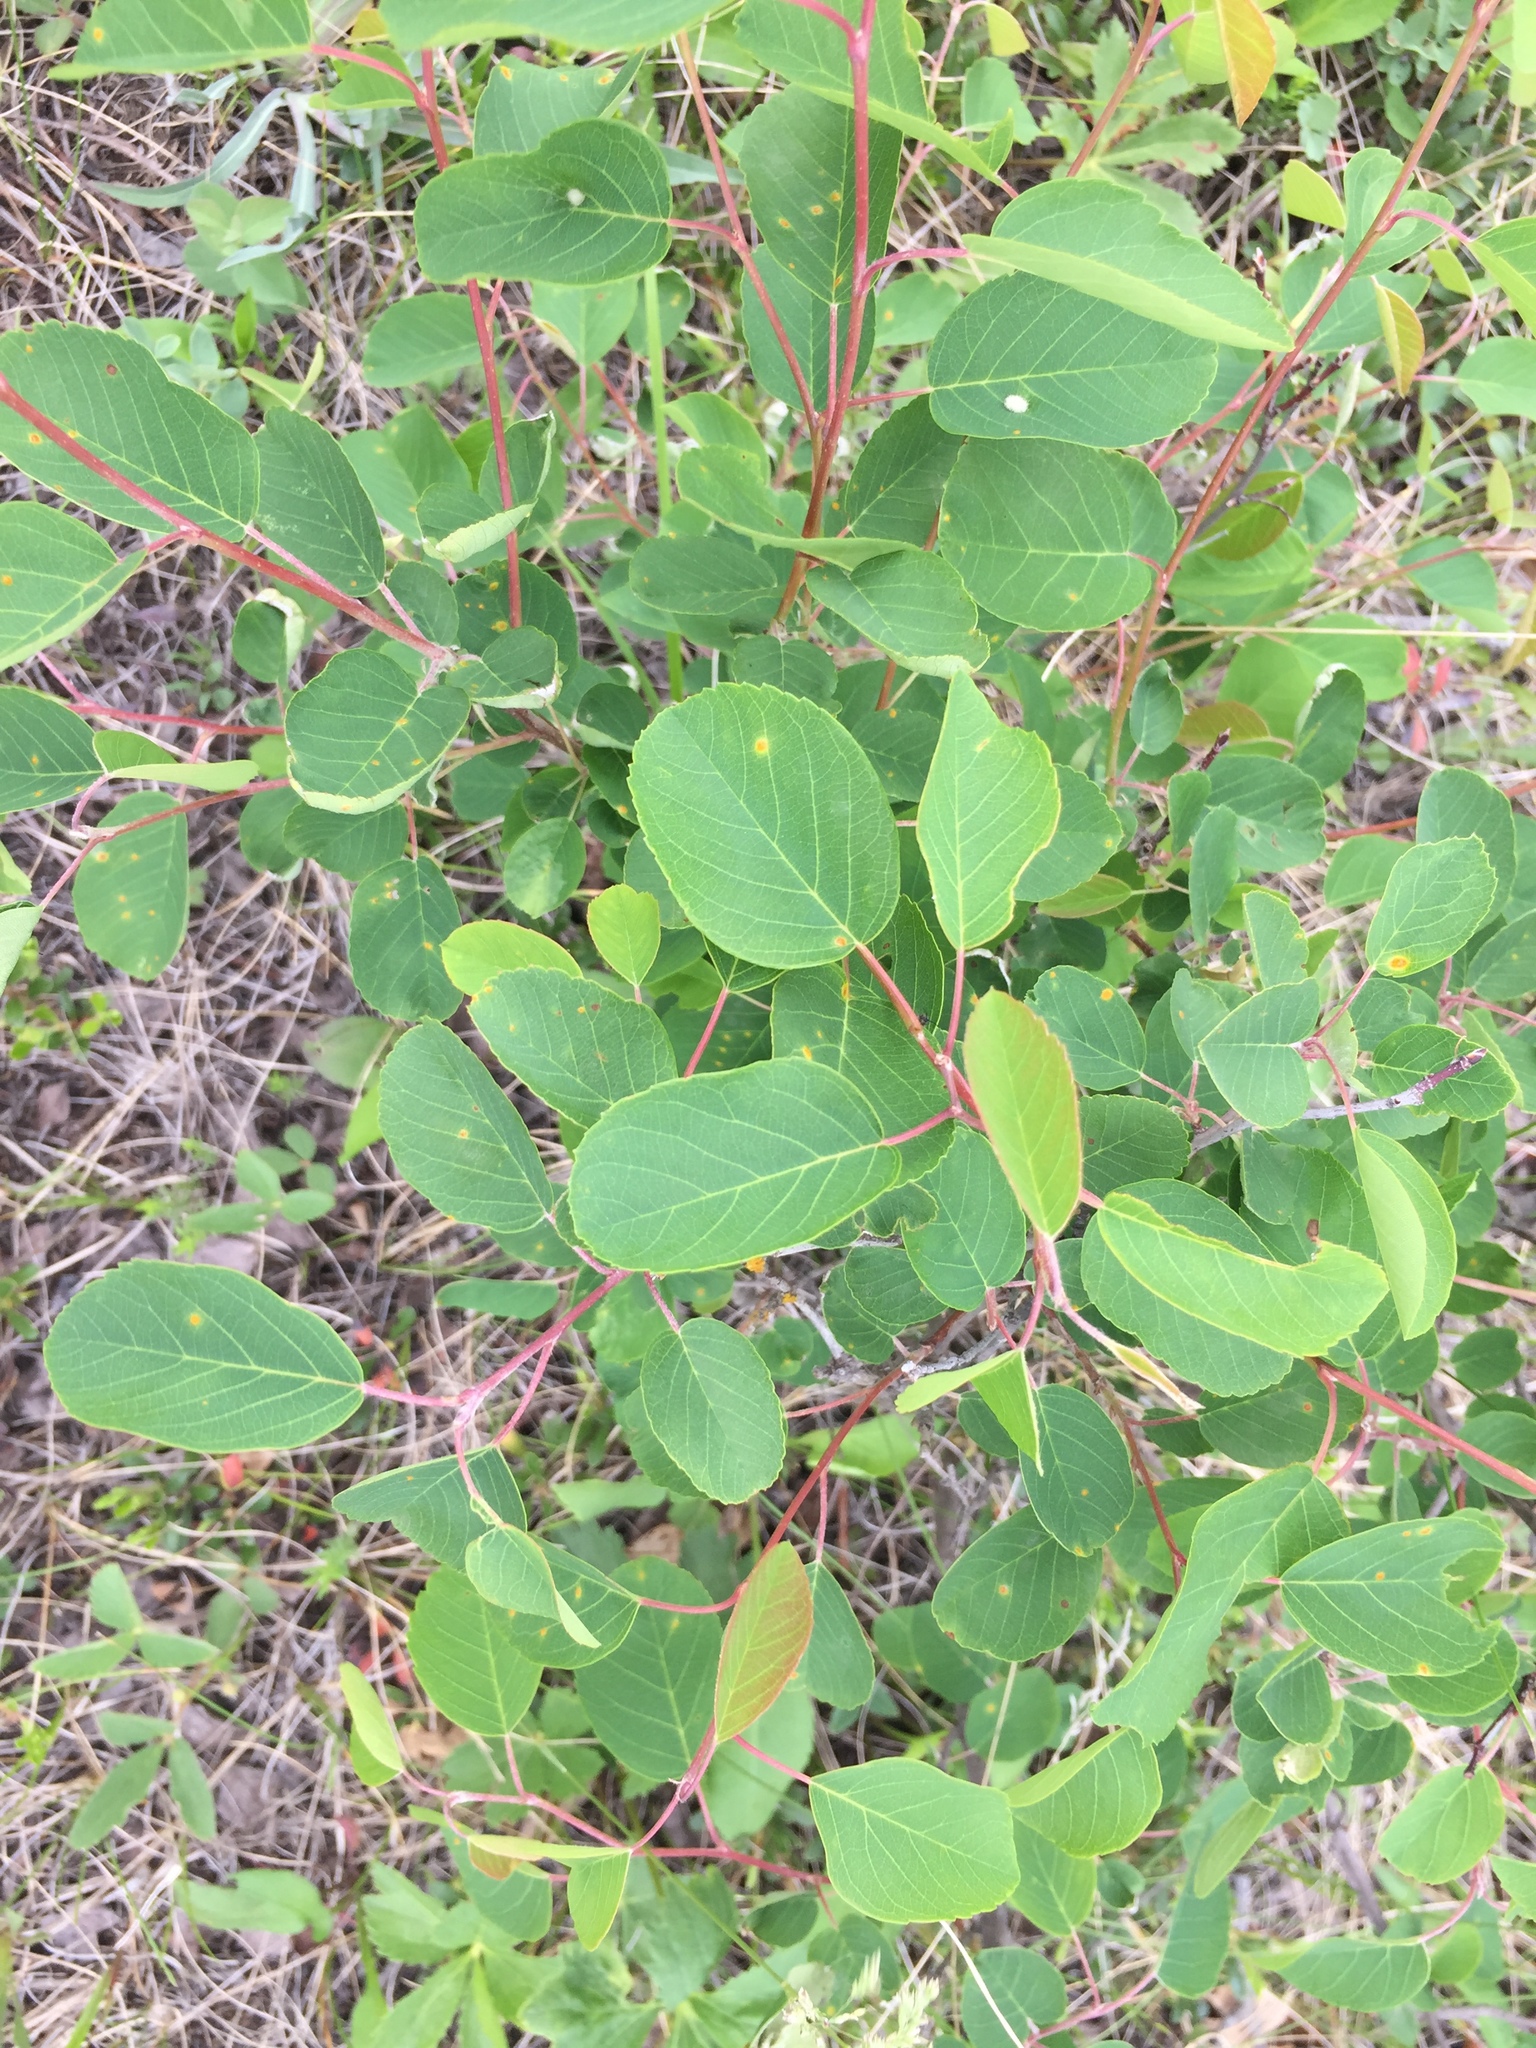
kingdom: Plantae
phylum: Tracheophyta
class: Magnoliopsida
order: Rosales
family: Rosaceae
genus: Amelanchier
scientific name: Amelanchier alnifolia
